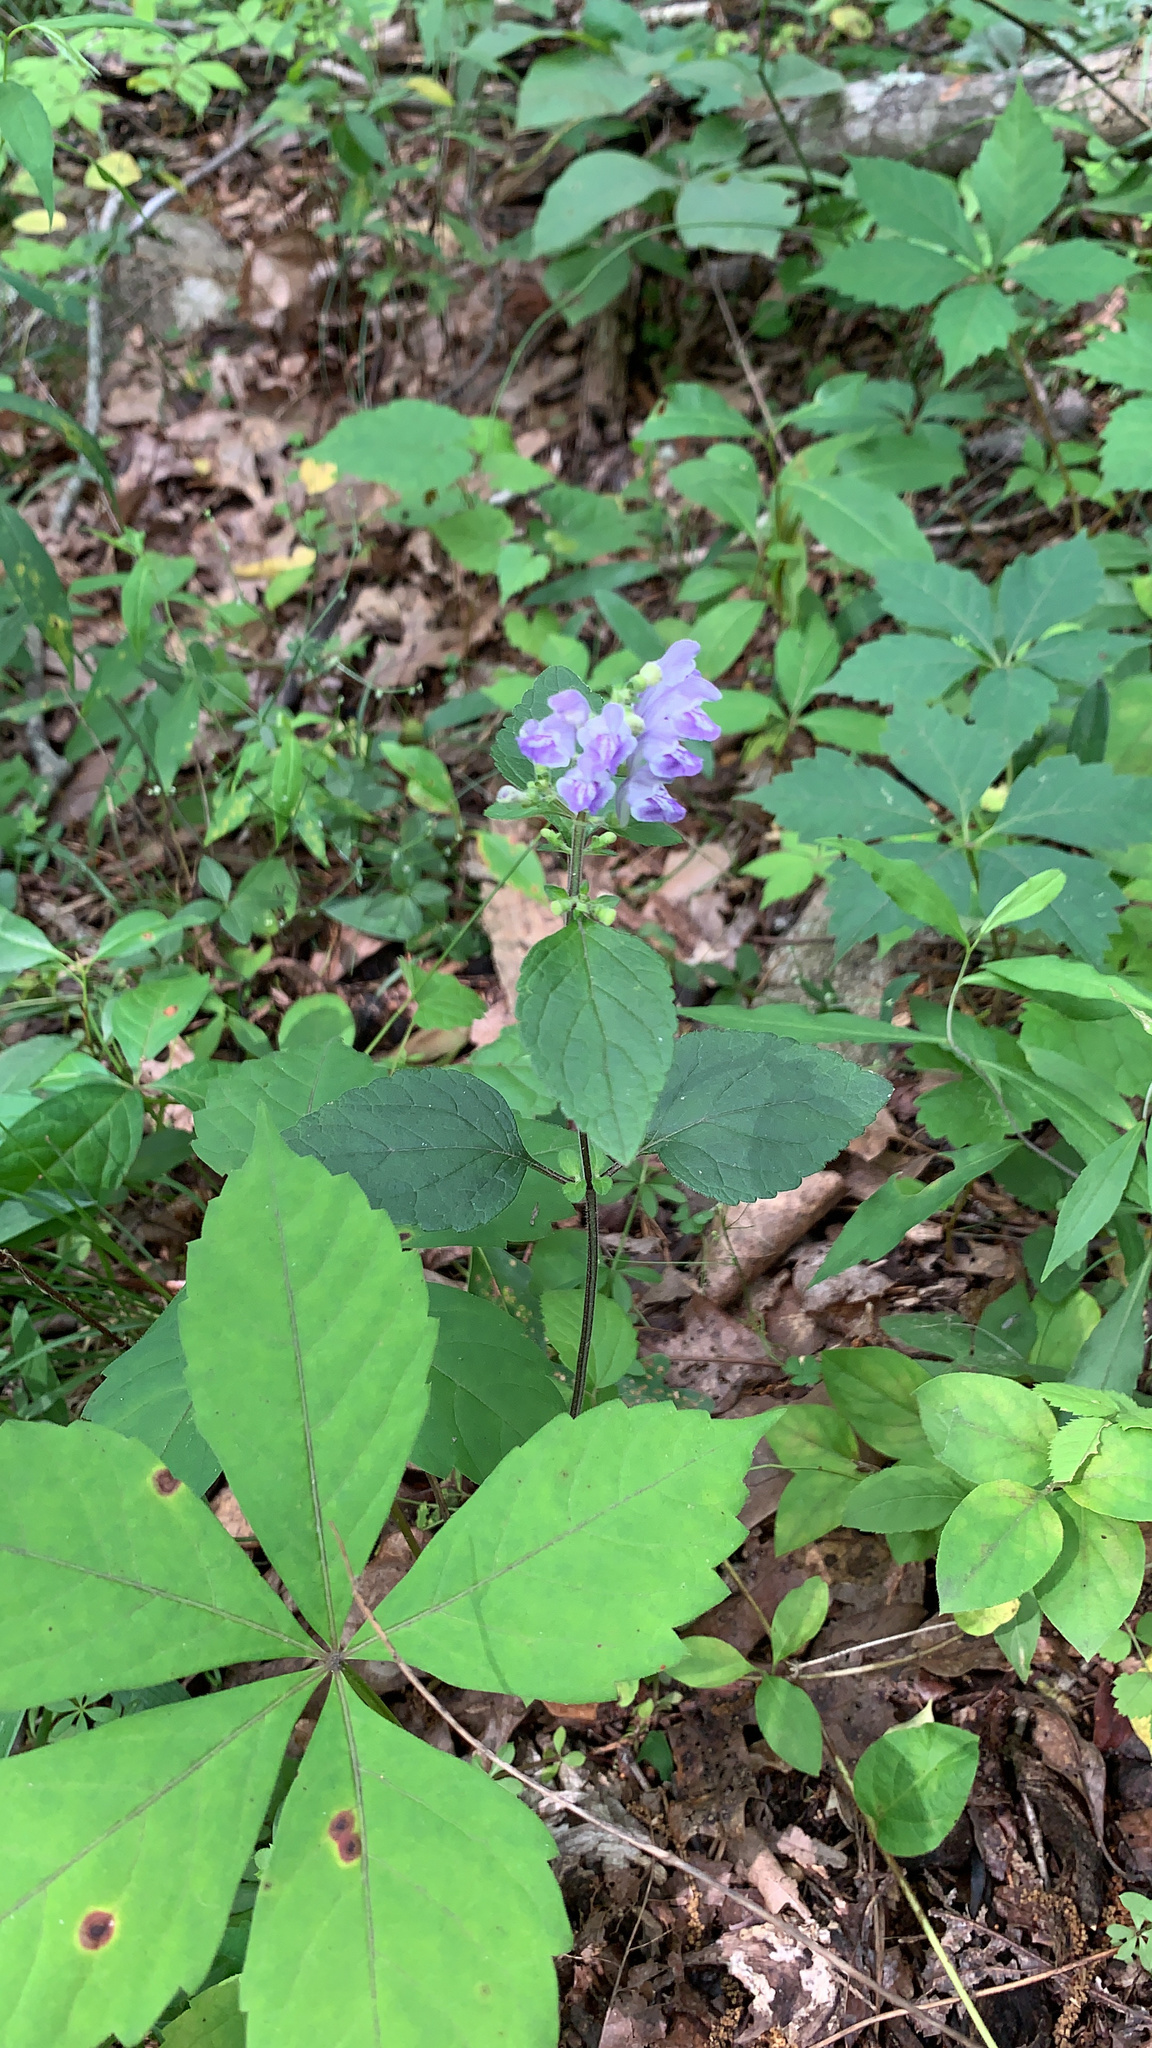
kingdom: Plantae
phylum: Tracheophyta
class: Magnoliopsida
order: Lamiales
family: Lamiaceae
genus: Scutellaria
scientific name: Scutellaria elliptica
